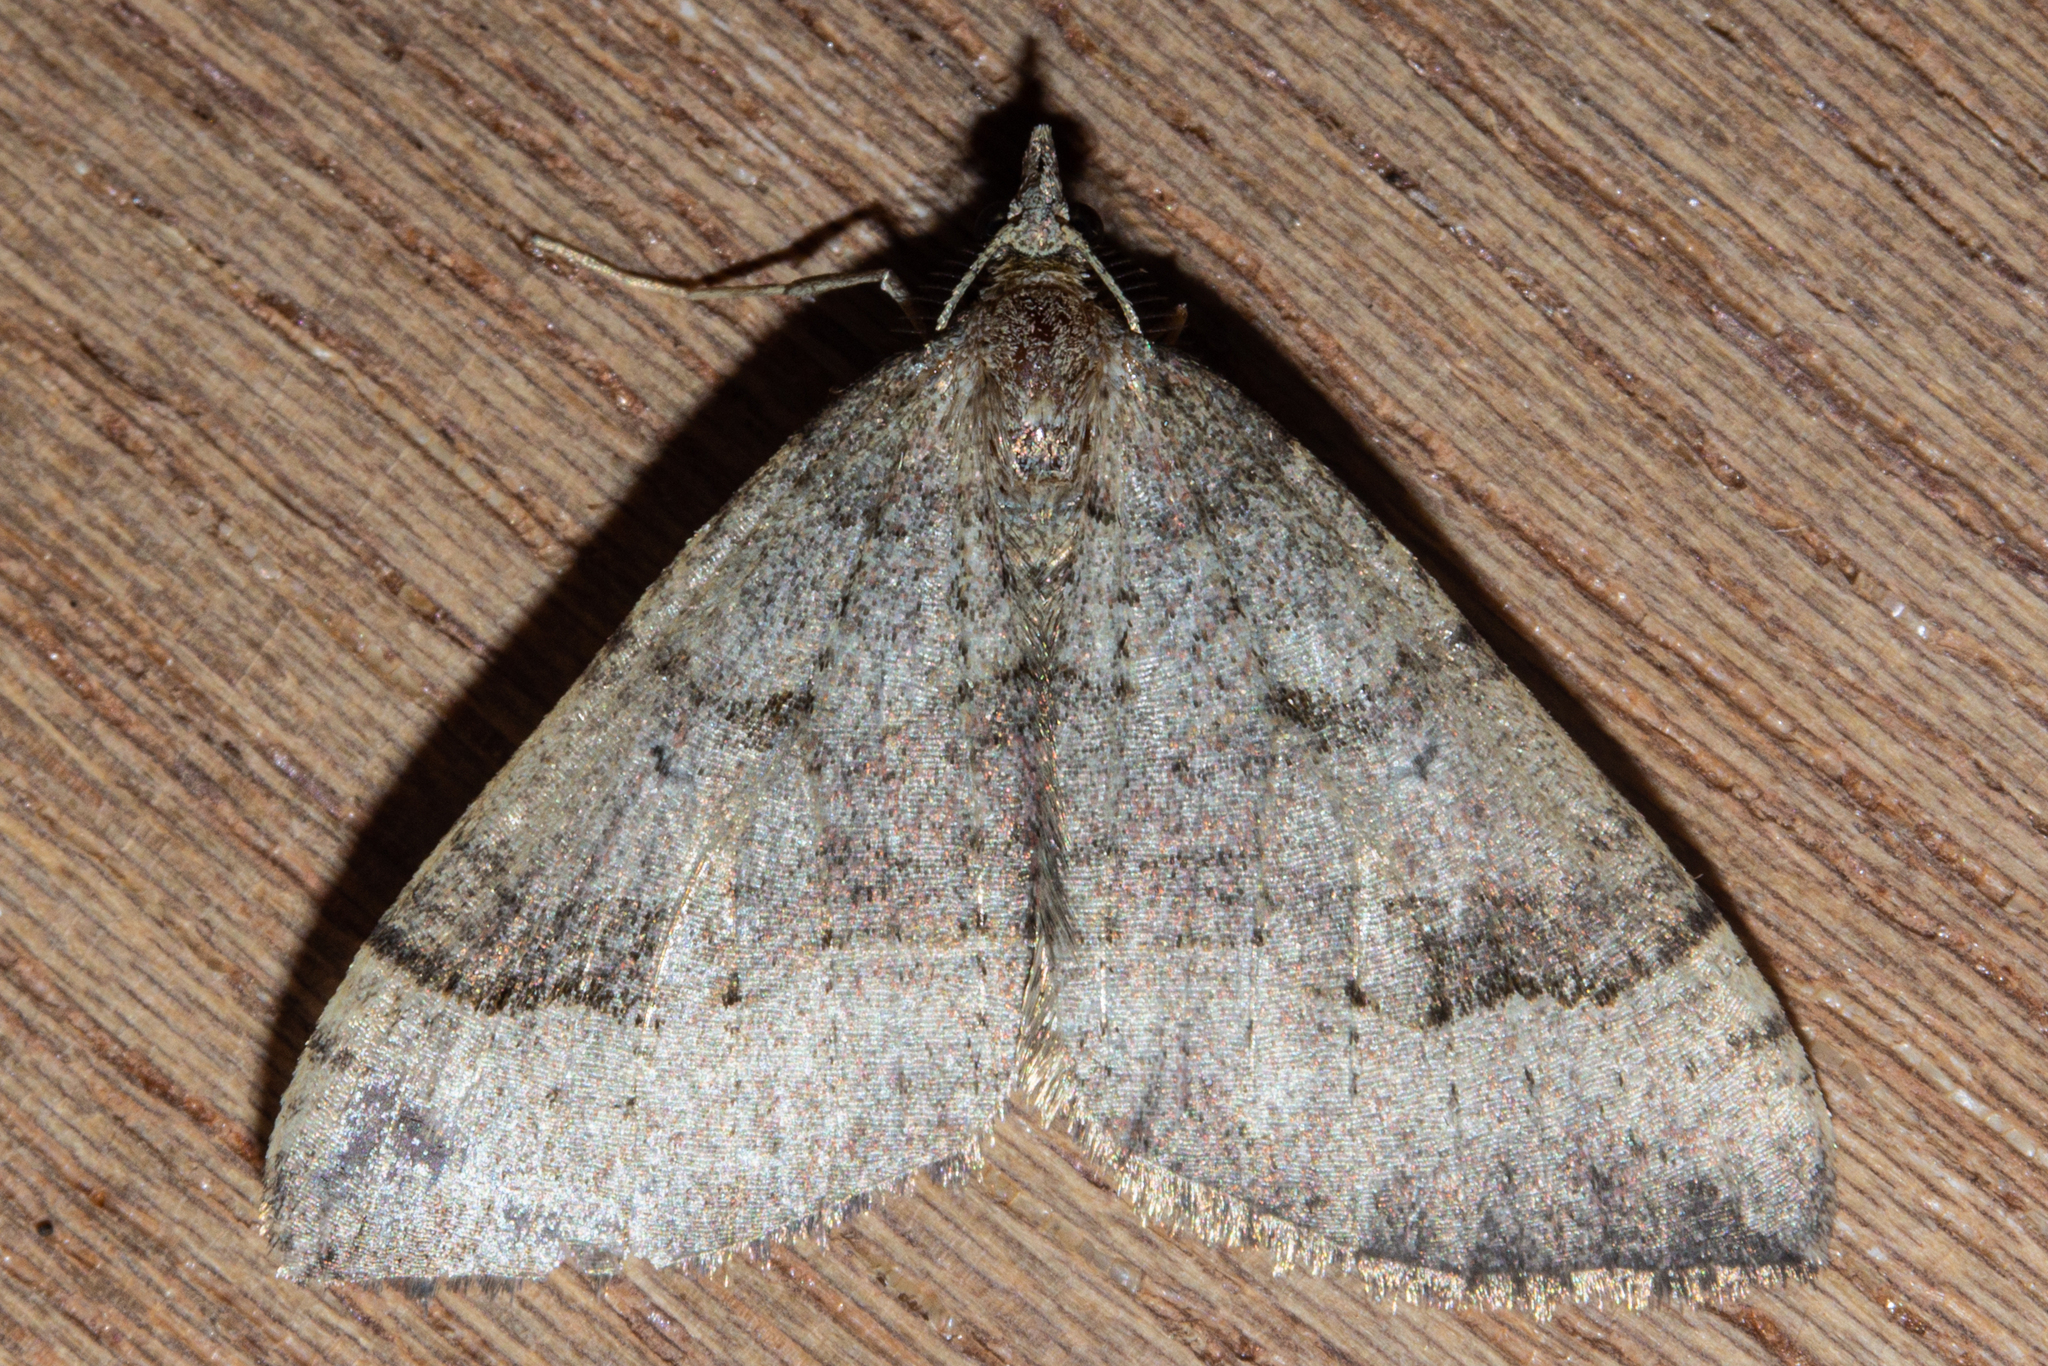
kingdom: Animalia
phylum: Arthropoda
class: Insecta
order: Lepidoptera
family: Geometridae
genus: Epyaxa
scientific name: Epyaxa rosearia
